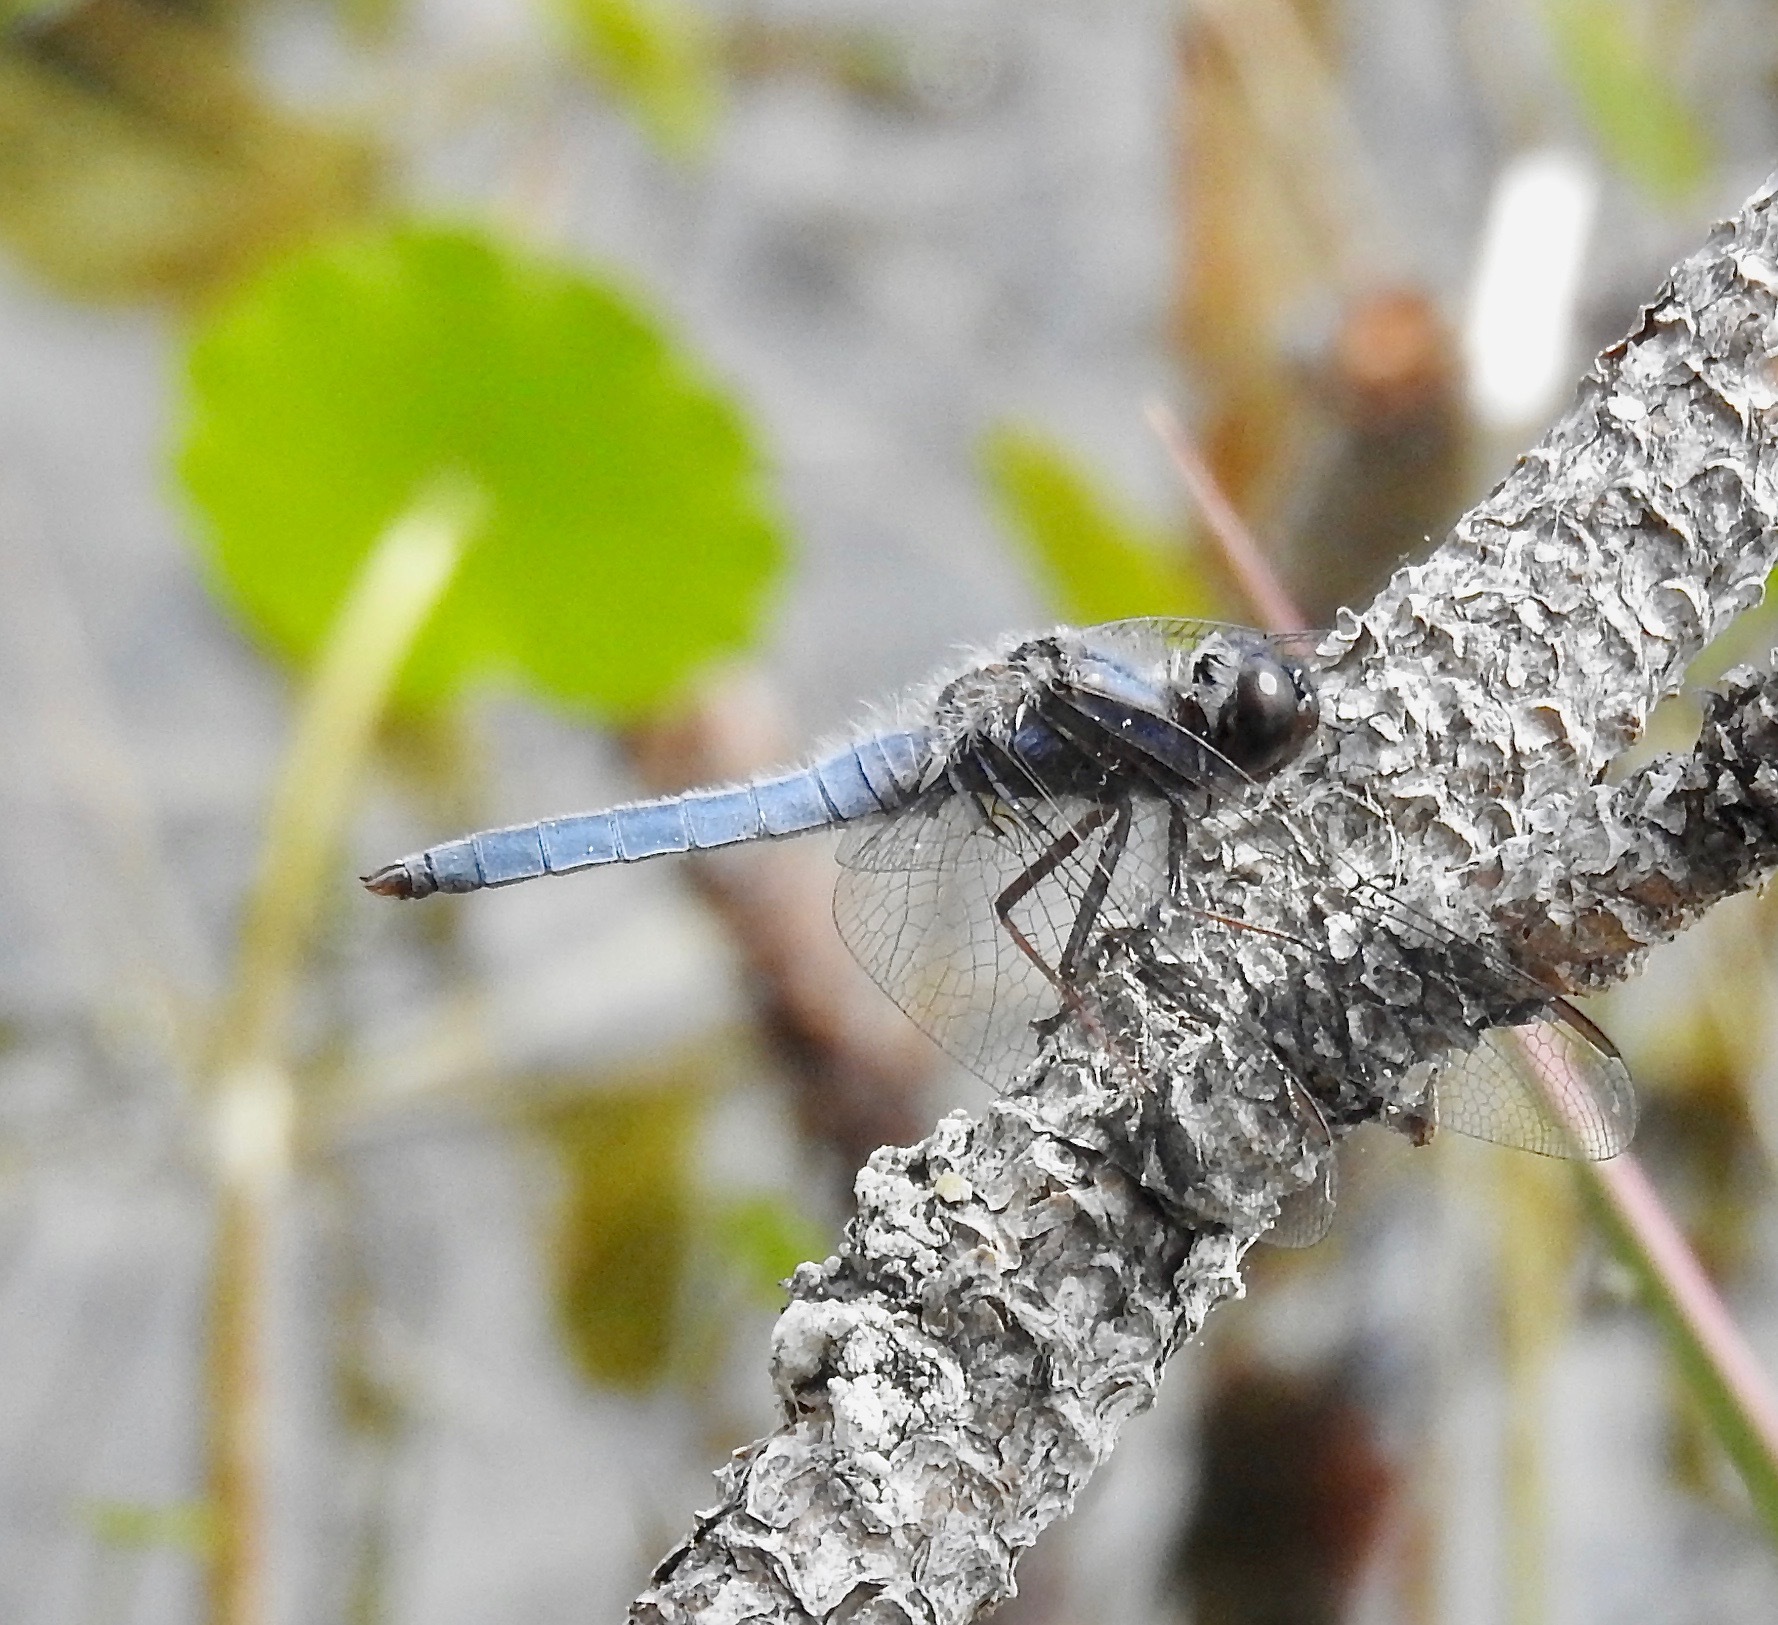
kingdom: Animalia
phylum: Arthropoda
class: Insecta
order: Odonata
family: Libellulidae
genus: Ladona
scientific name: Ladona deplanata
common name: Blue corporal
